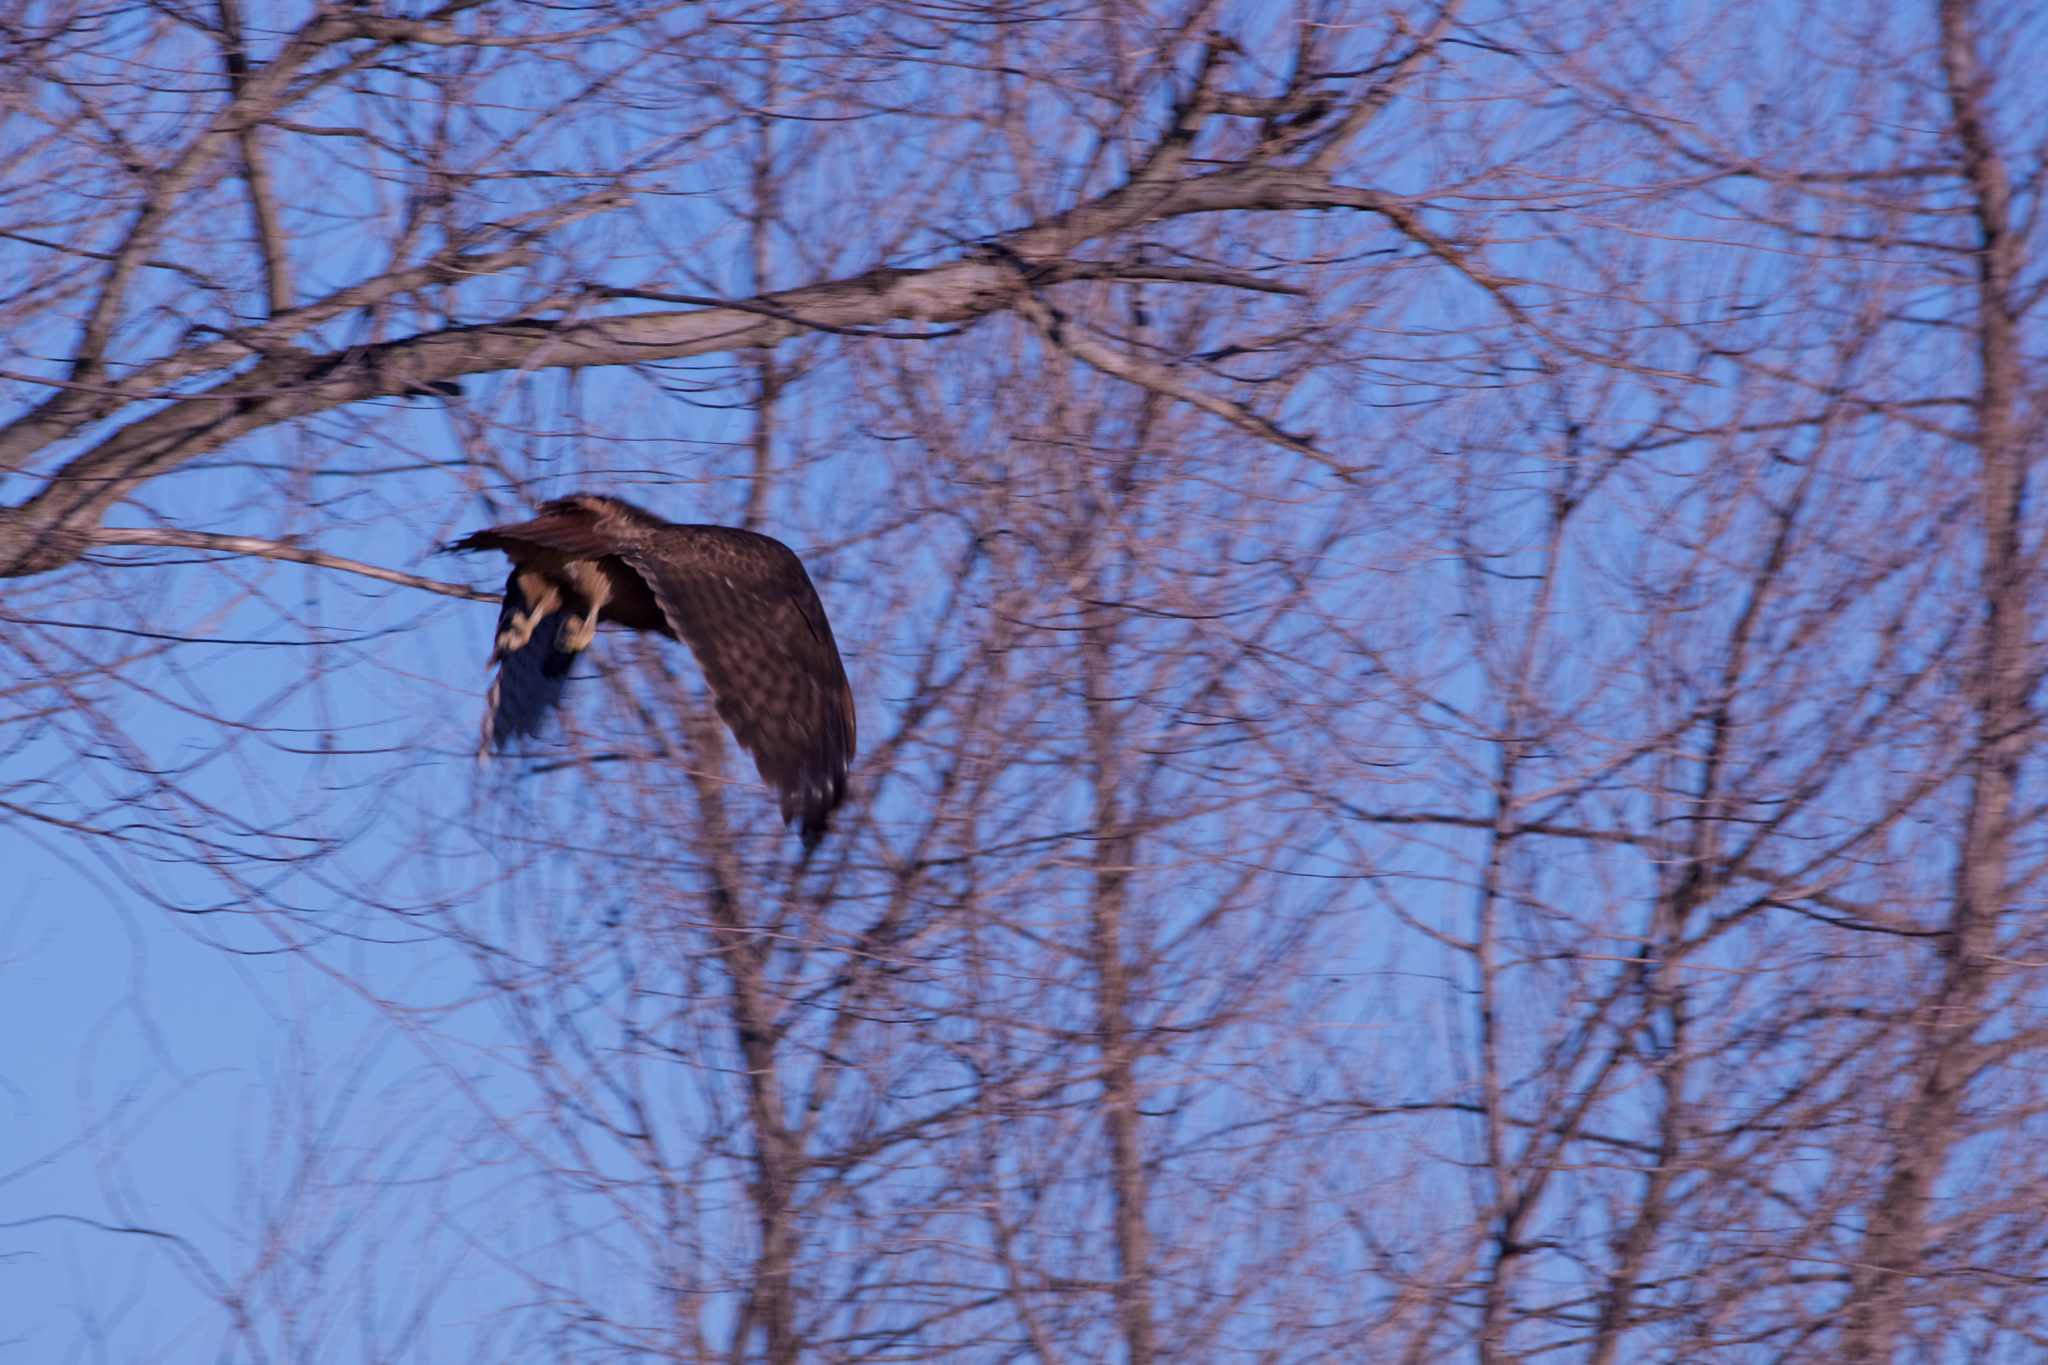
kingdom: Animalia
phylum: Chordata
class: Aves
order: Accipitriformes
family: Accipitridae
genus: Buteo
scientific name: Buteo jamaicensis
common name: Red-tailed hawk
